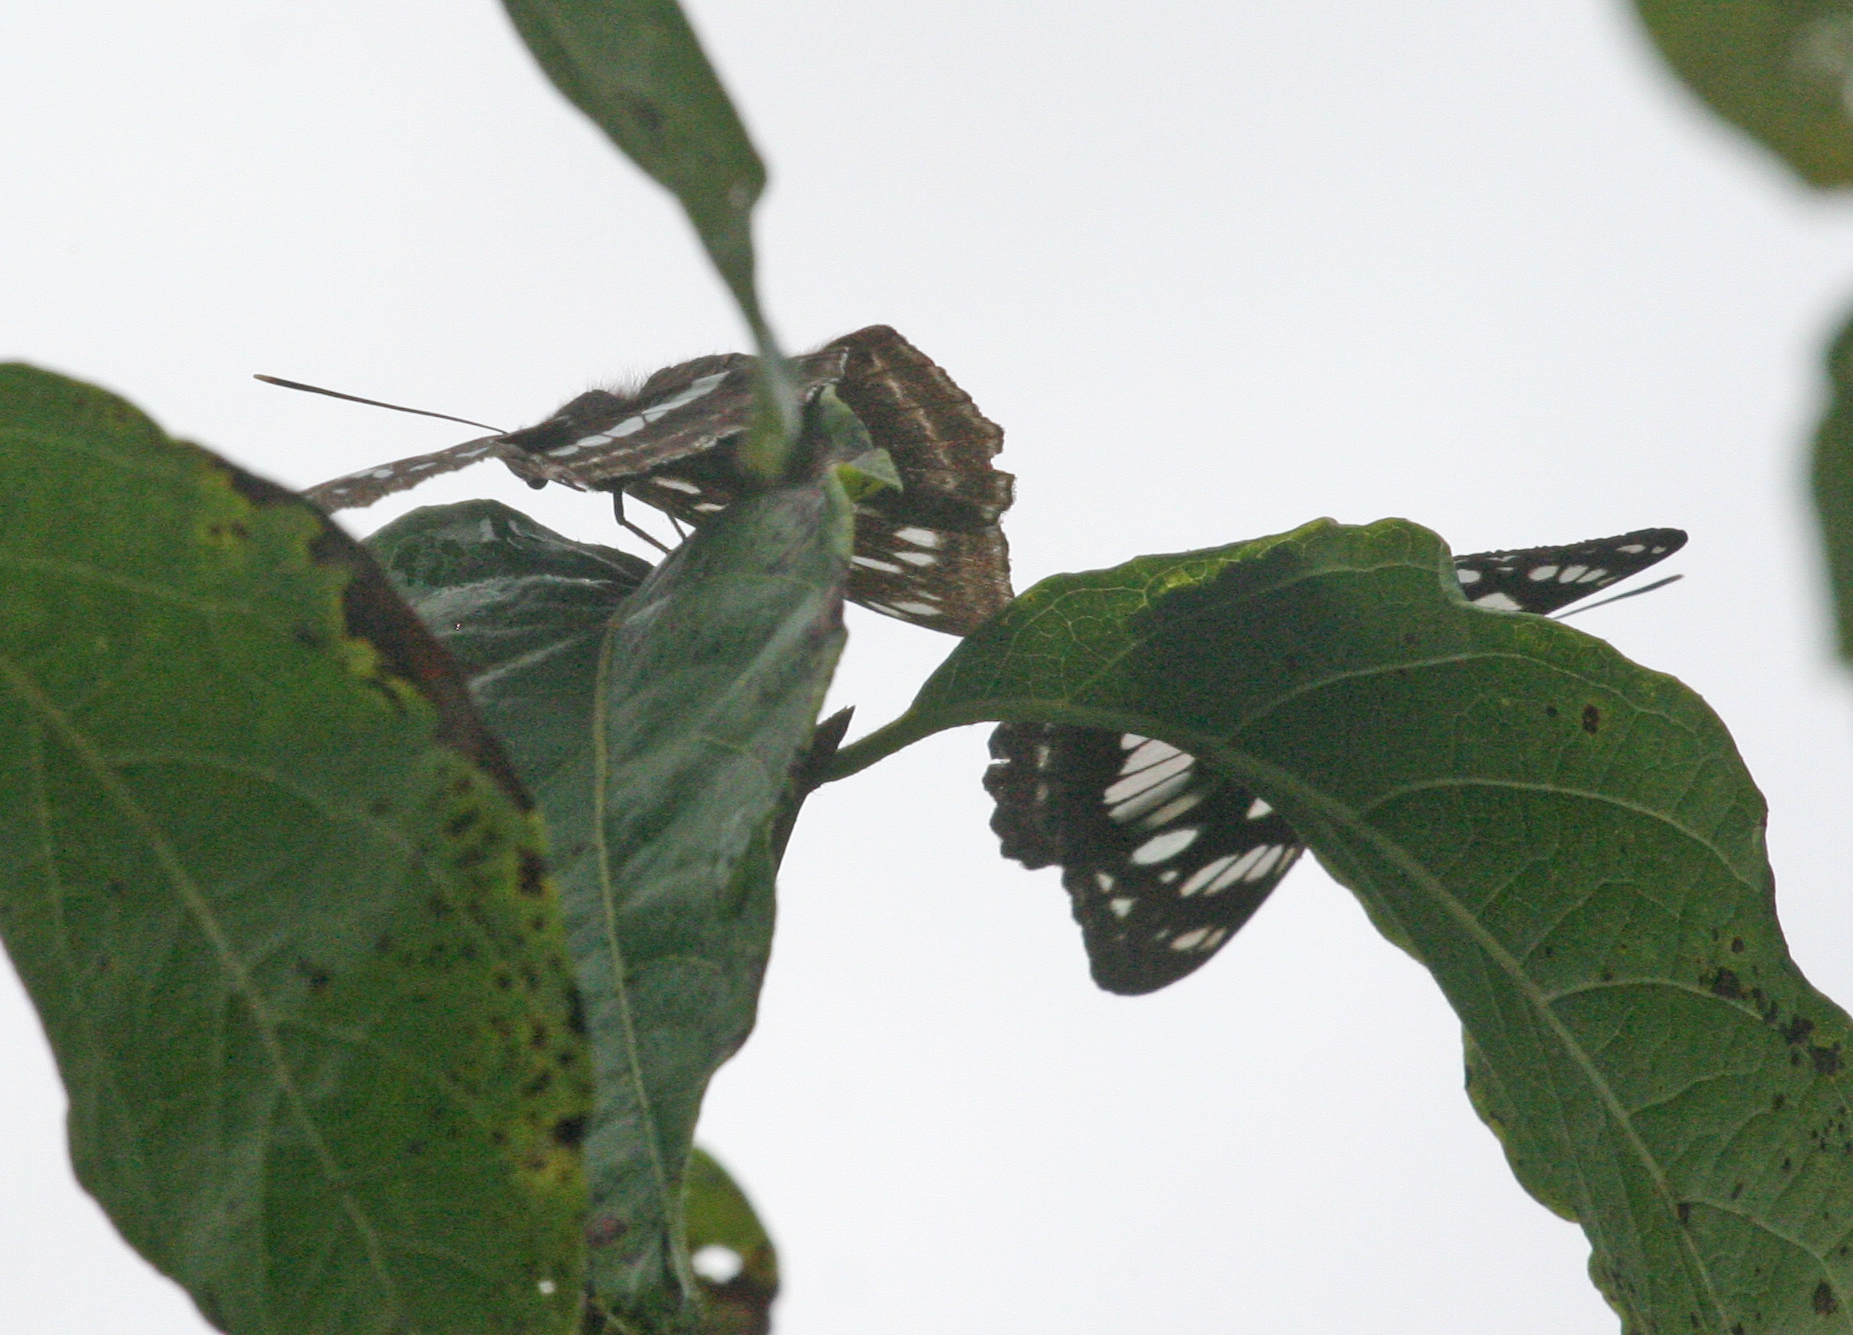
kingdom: Animalia
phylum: Arthropoda
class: Insecta
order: Lepidoptera
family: Nymphalidae
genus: Limenitis
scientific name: Limenitis amphyssa
